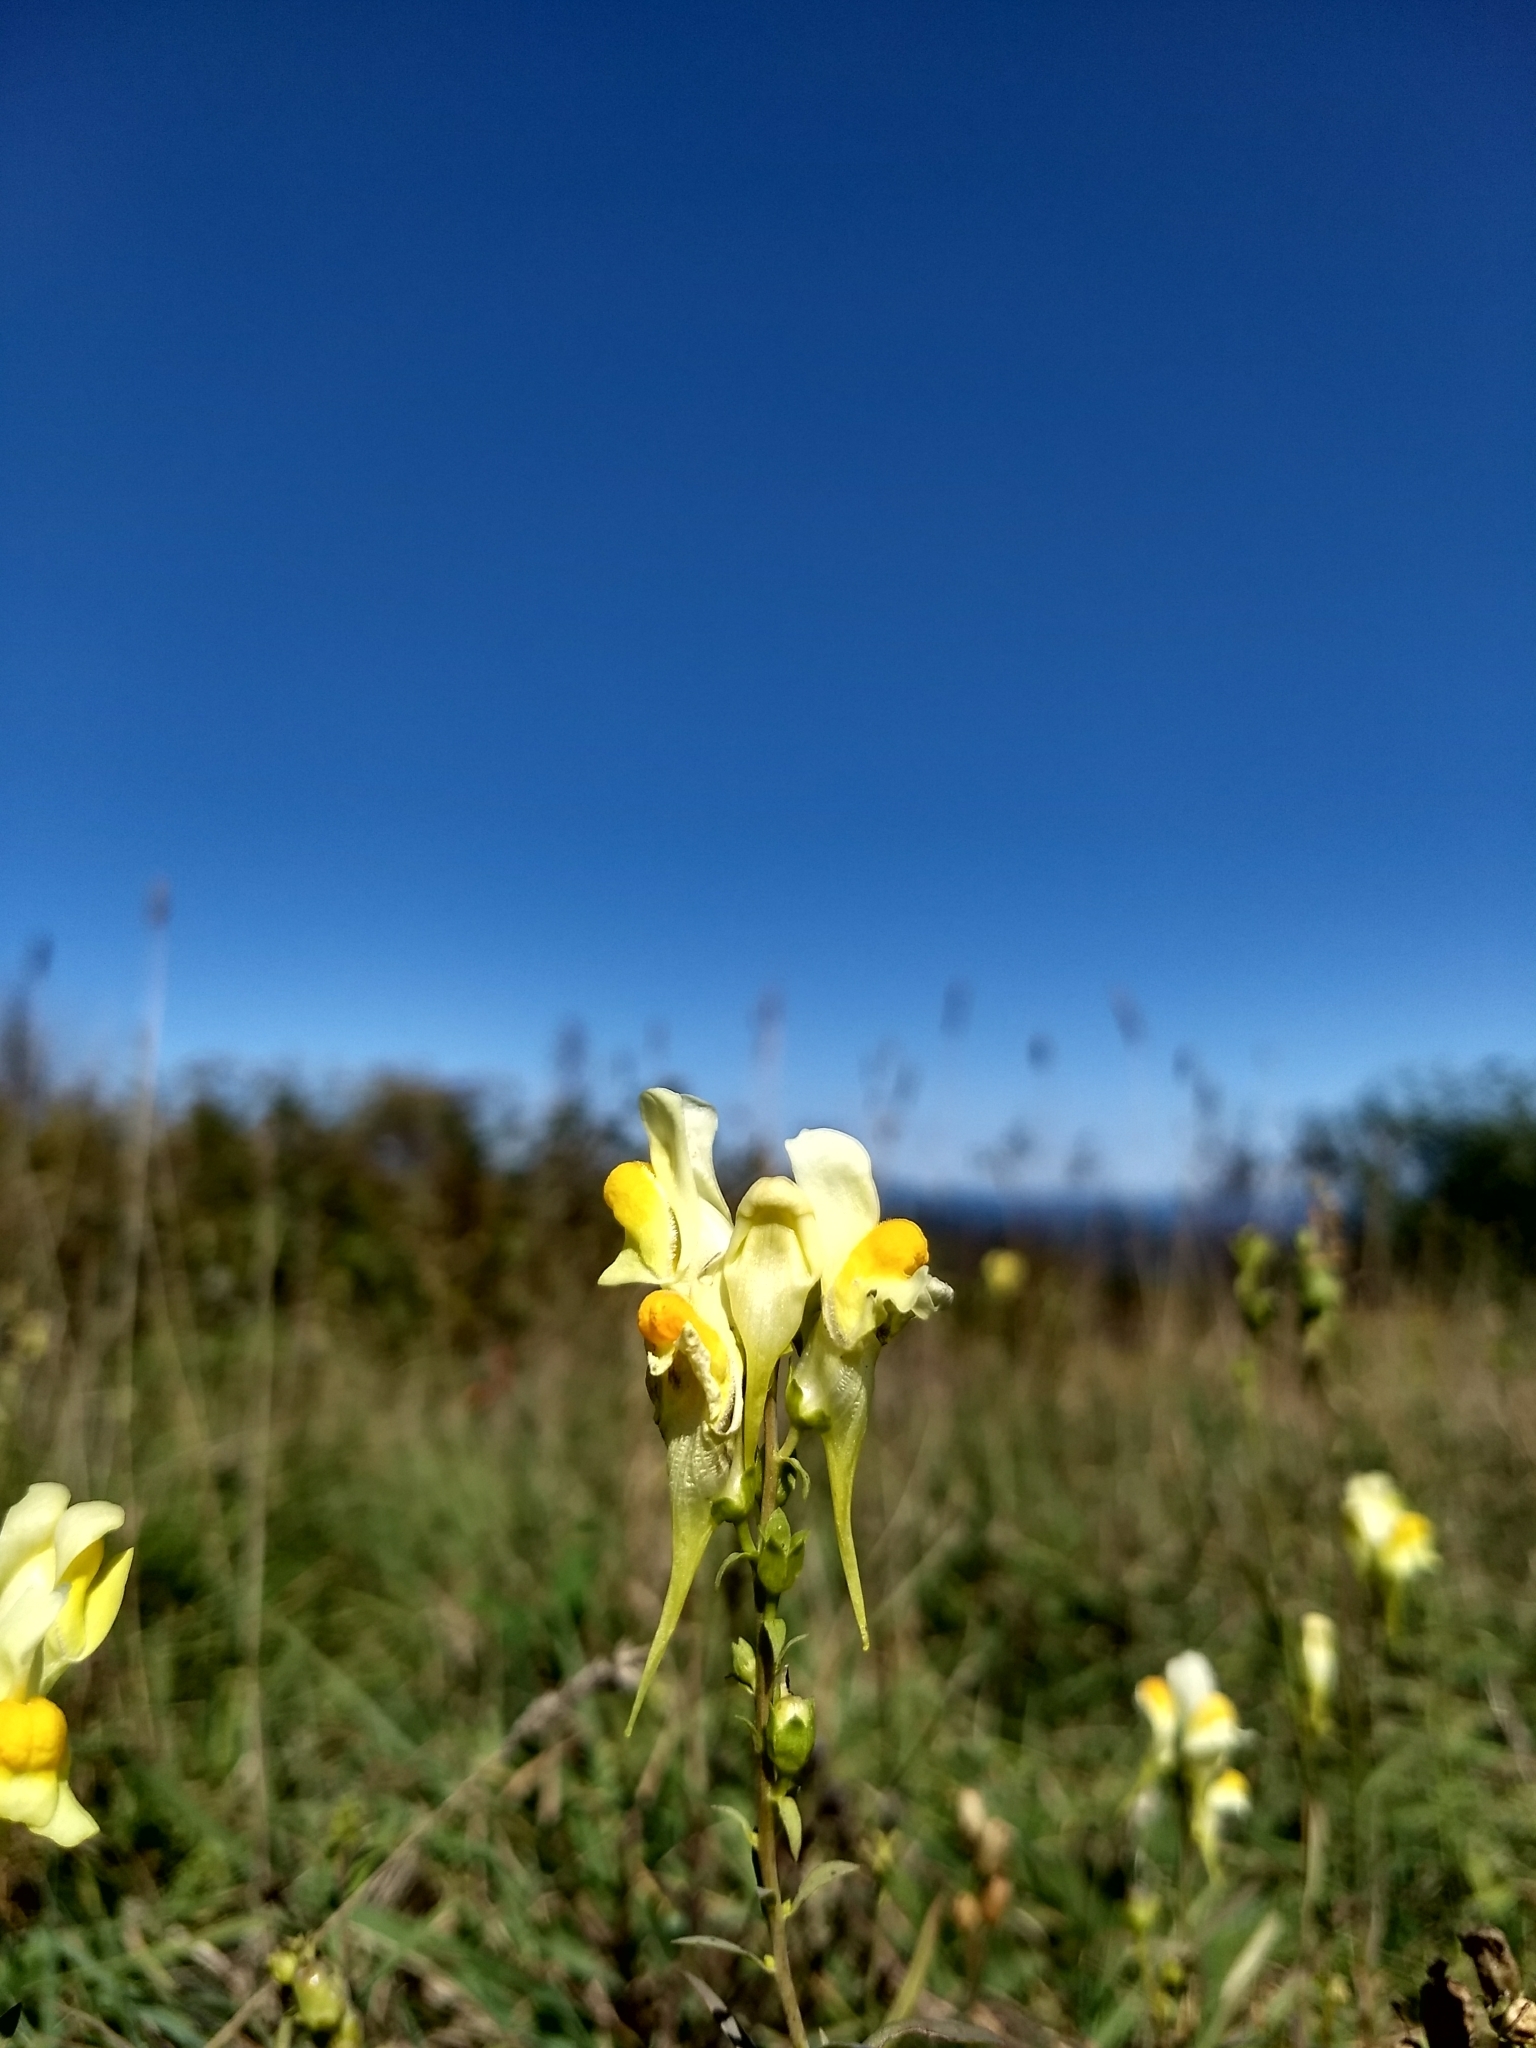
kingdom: Plantae
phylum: Tracheophyta
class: Magnoliopsida
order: Lamiales
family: Plantaginaceae
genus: Linaria
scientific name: Linaria vulgaris
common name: Butter and eggs
